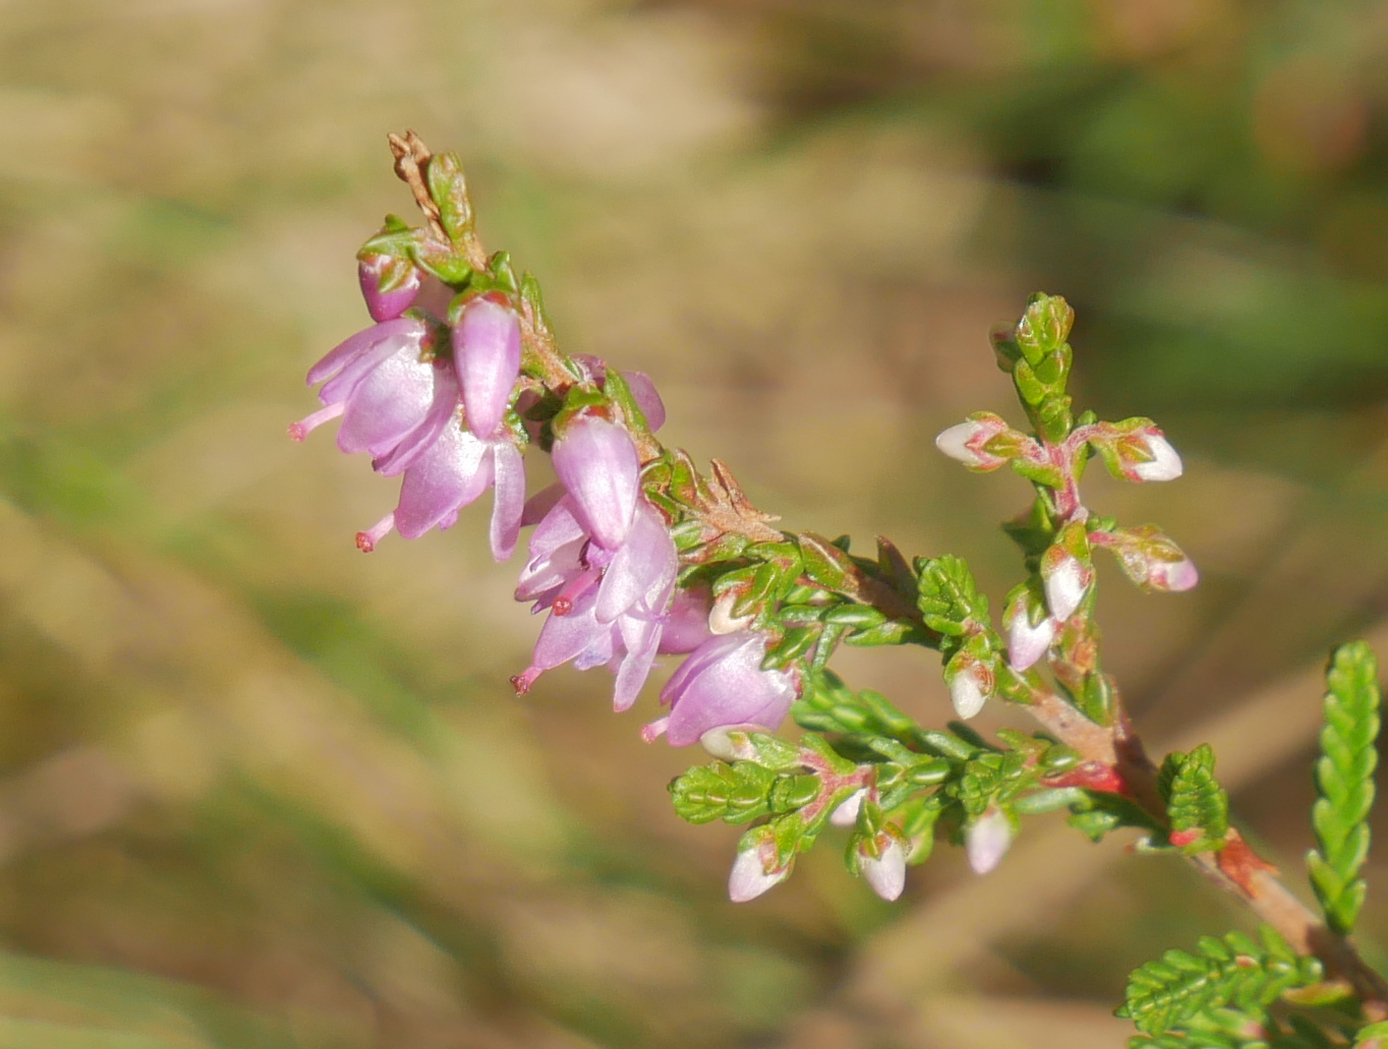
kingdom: Plantae
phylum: Tracheophyta
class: Magnoliopsida
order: Ericales
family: Ericaceae
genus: Calluna
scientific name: Calluna vulgaris
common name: Heather
